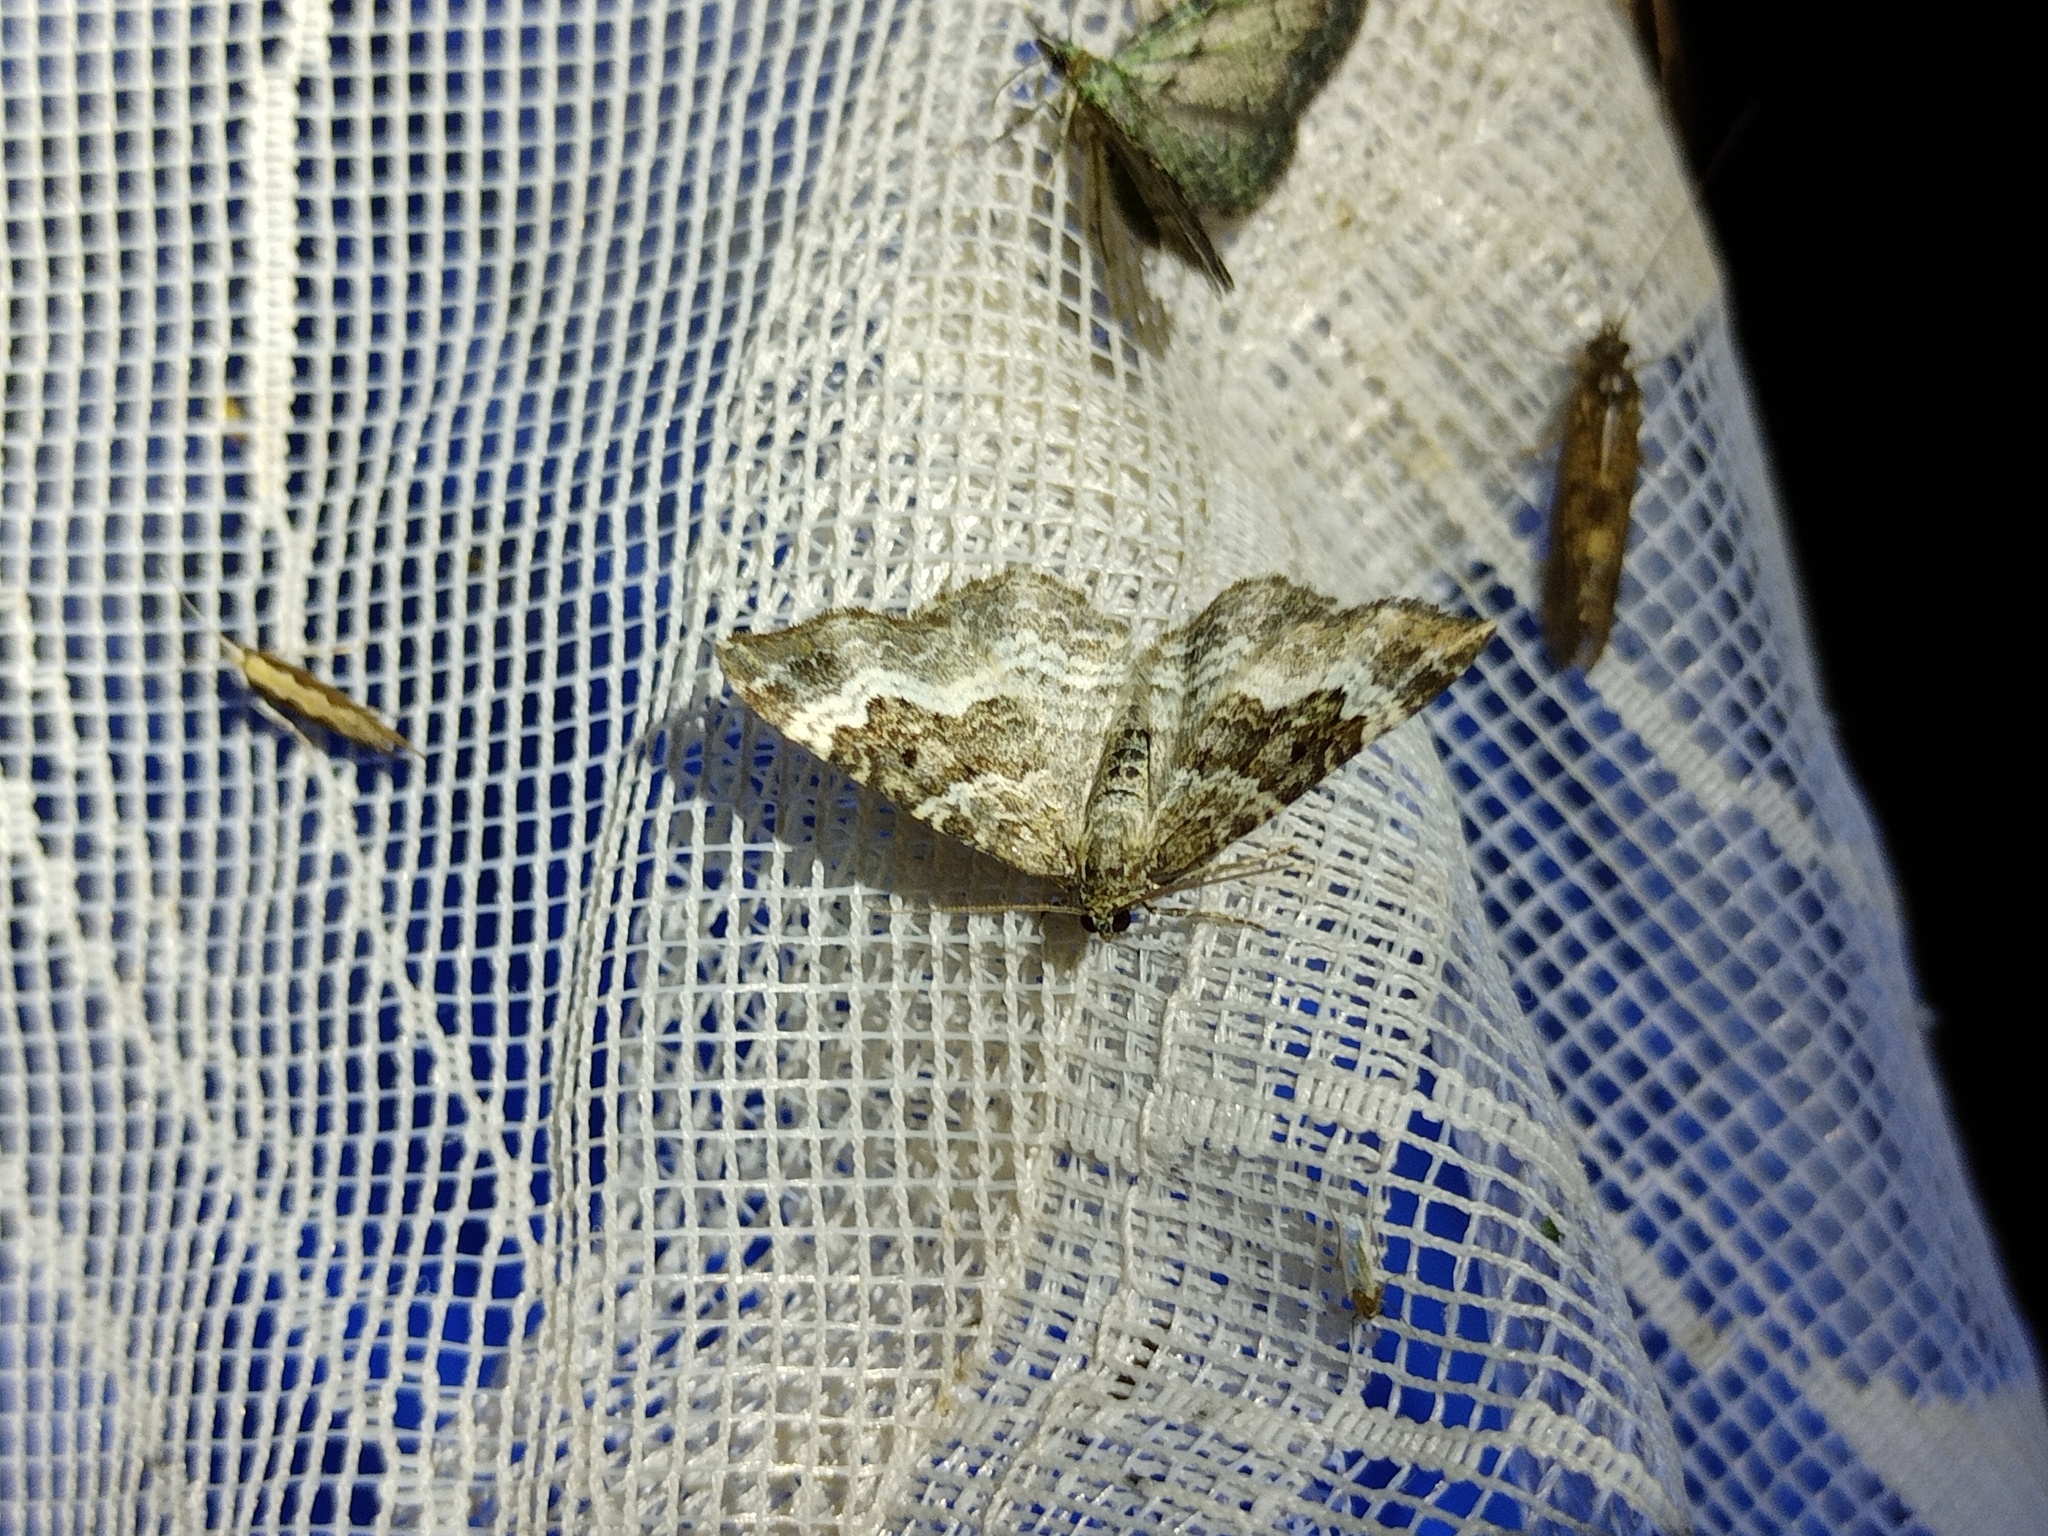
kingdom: Animalia
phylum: Arthropoda
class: Insecta
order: Lepidoptera
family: Geometridae
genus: Epirrhoe
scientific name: Epirrhoe alternata
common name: Common carpet
